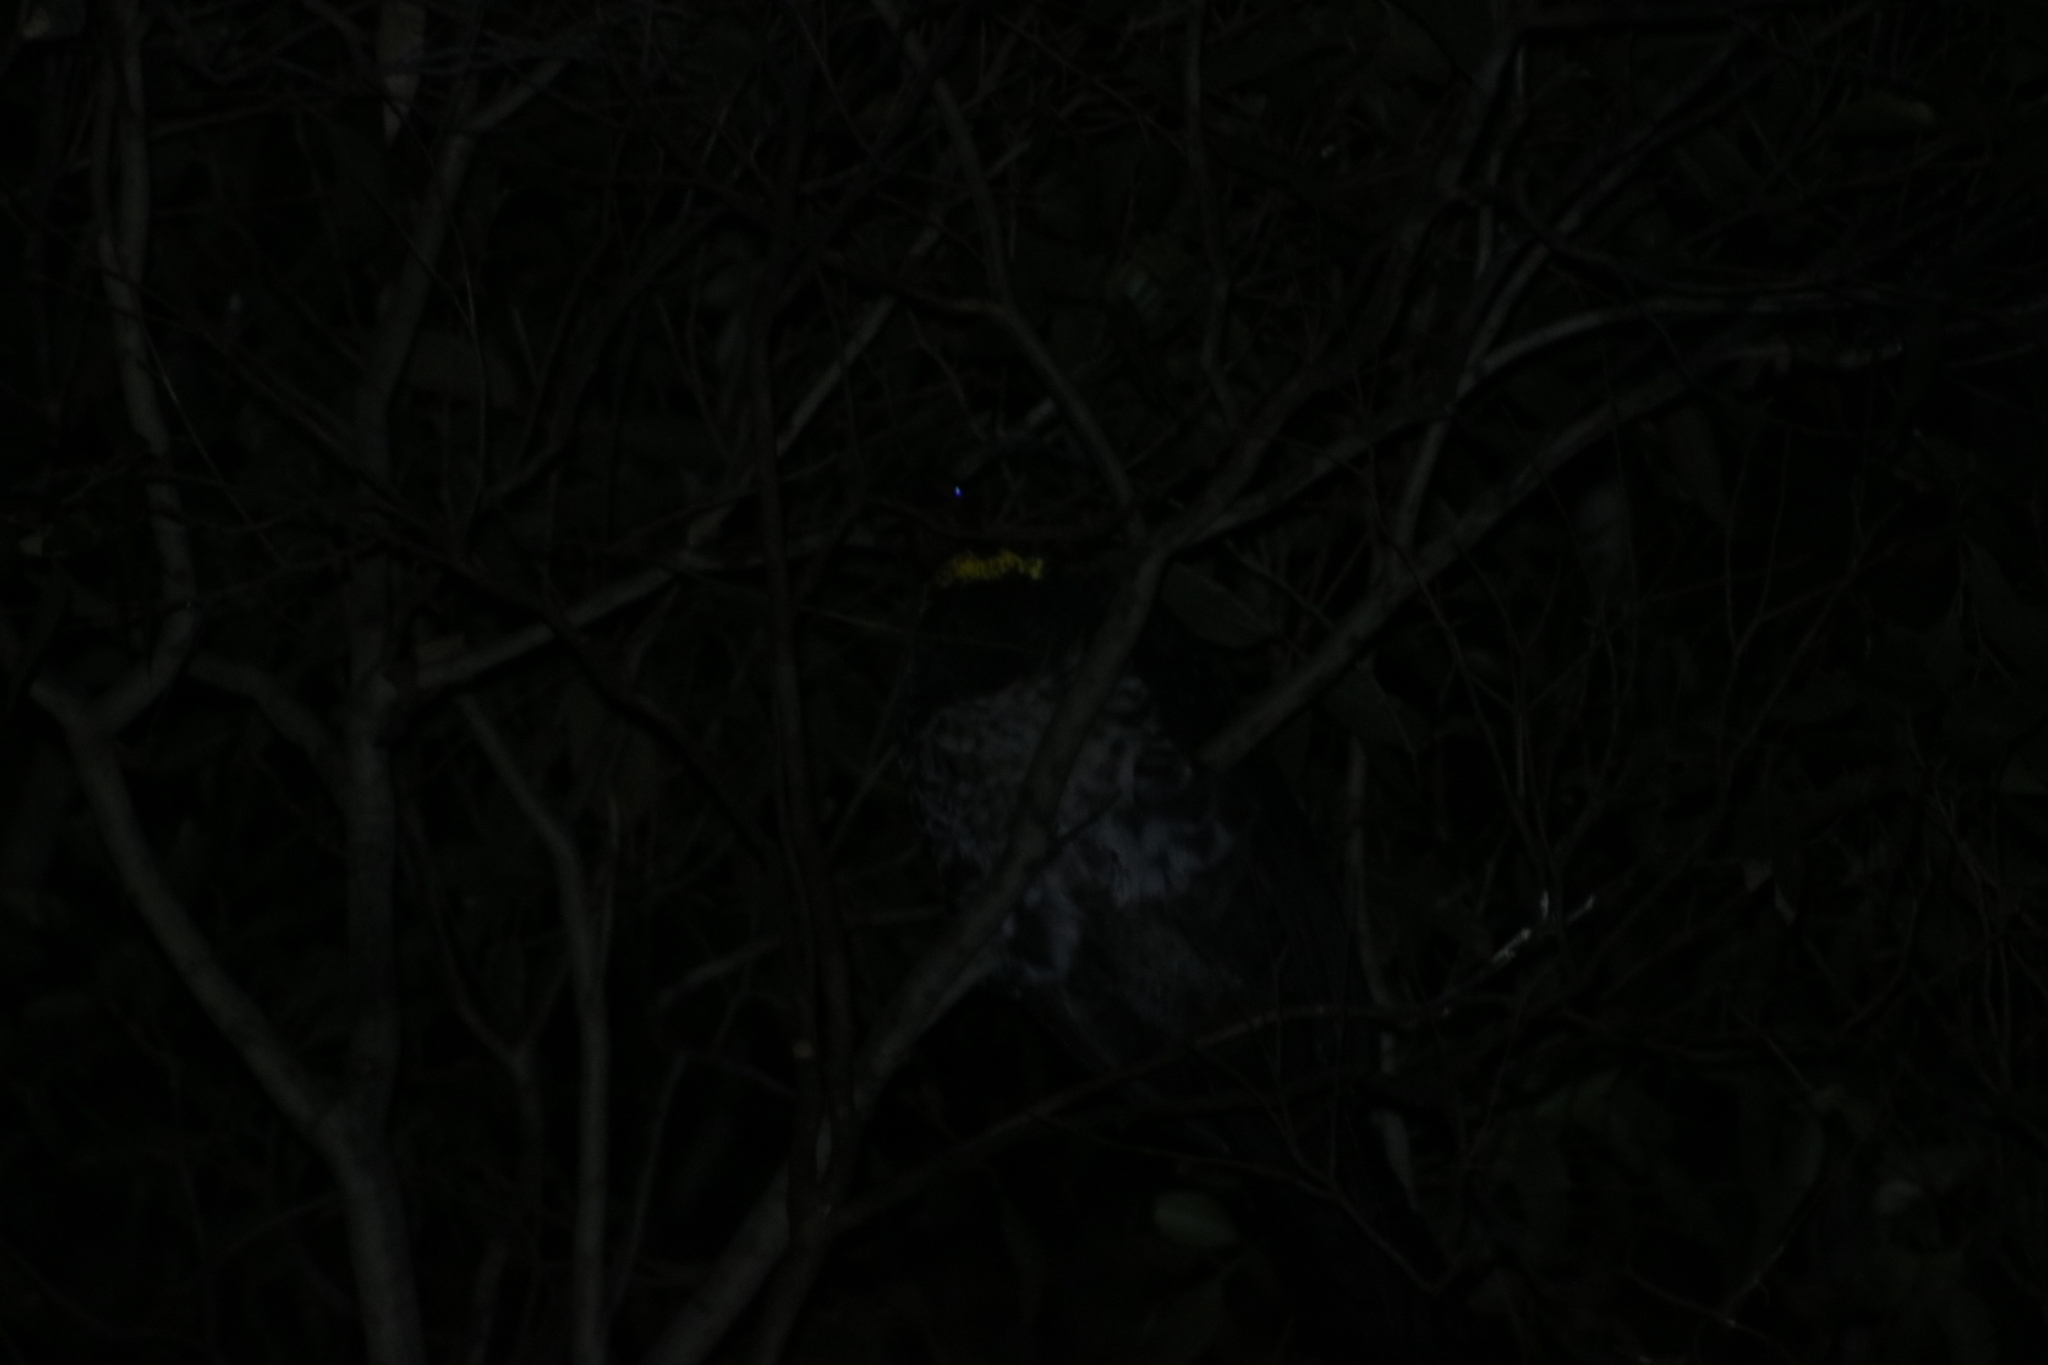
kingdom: Animalia
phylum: Chordata
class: Aves
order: Galliformes
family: Megapodiidae
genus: Alectura
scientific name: Alectura lathami
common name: Australian brushturkey
